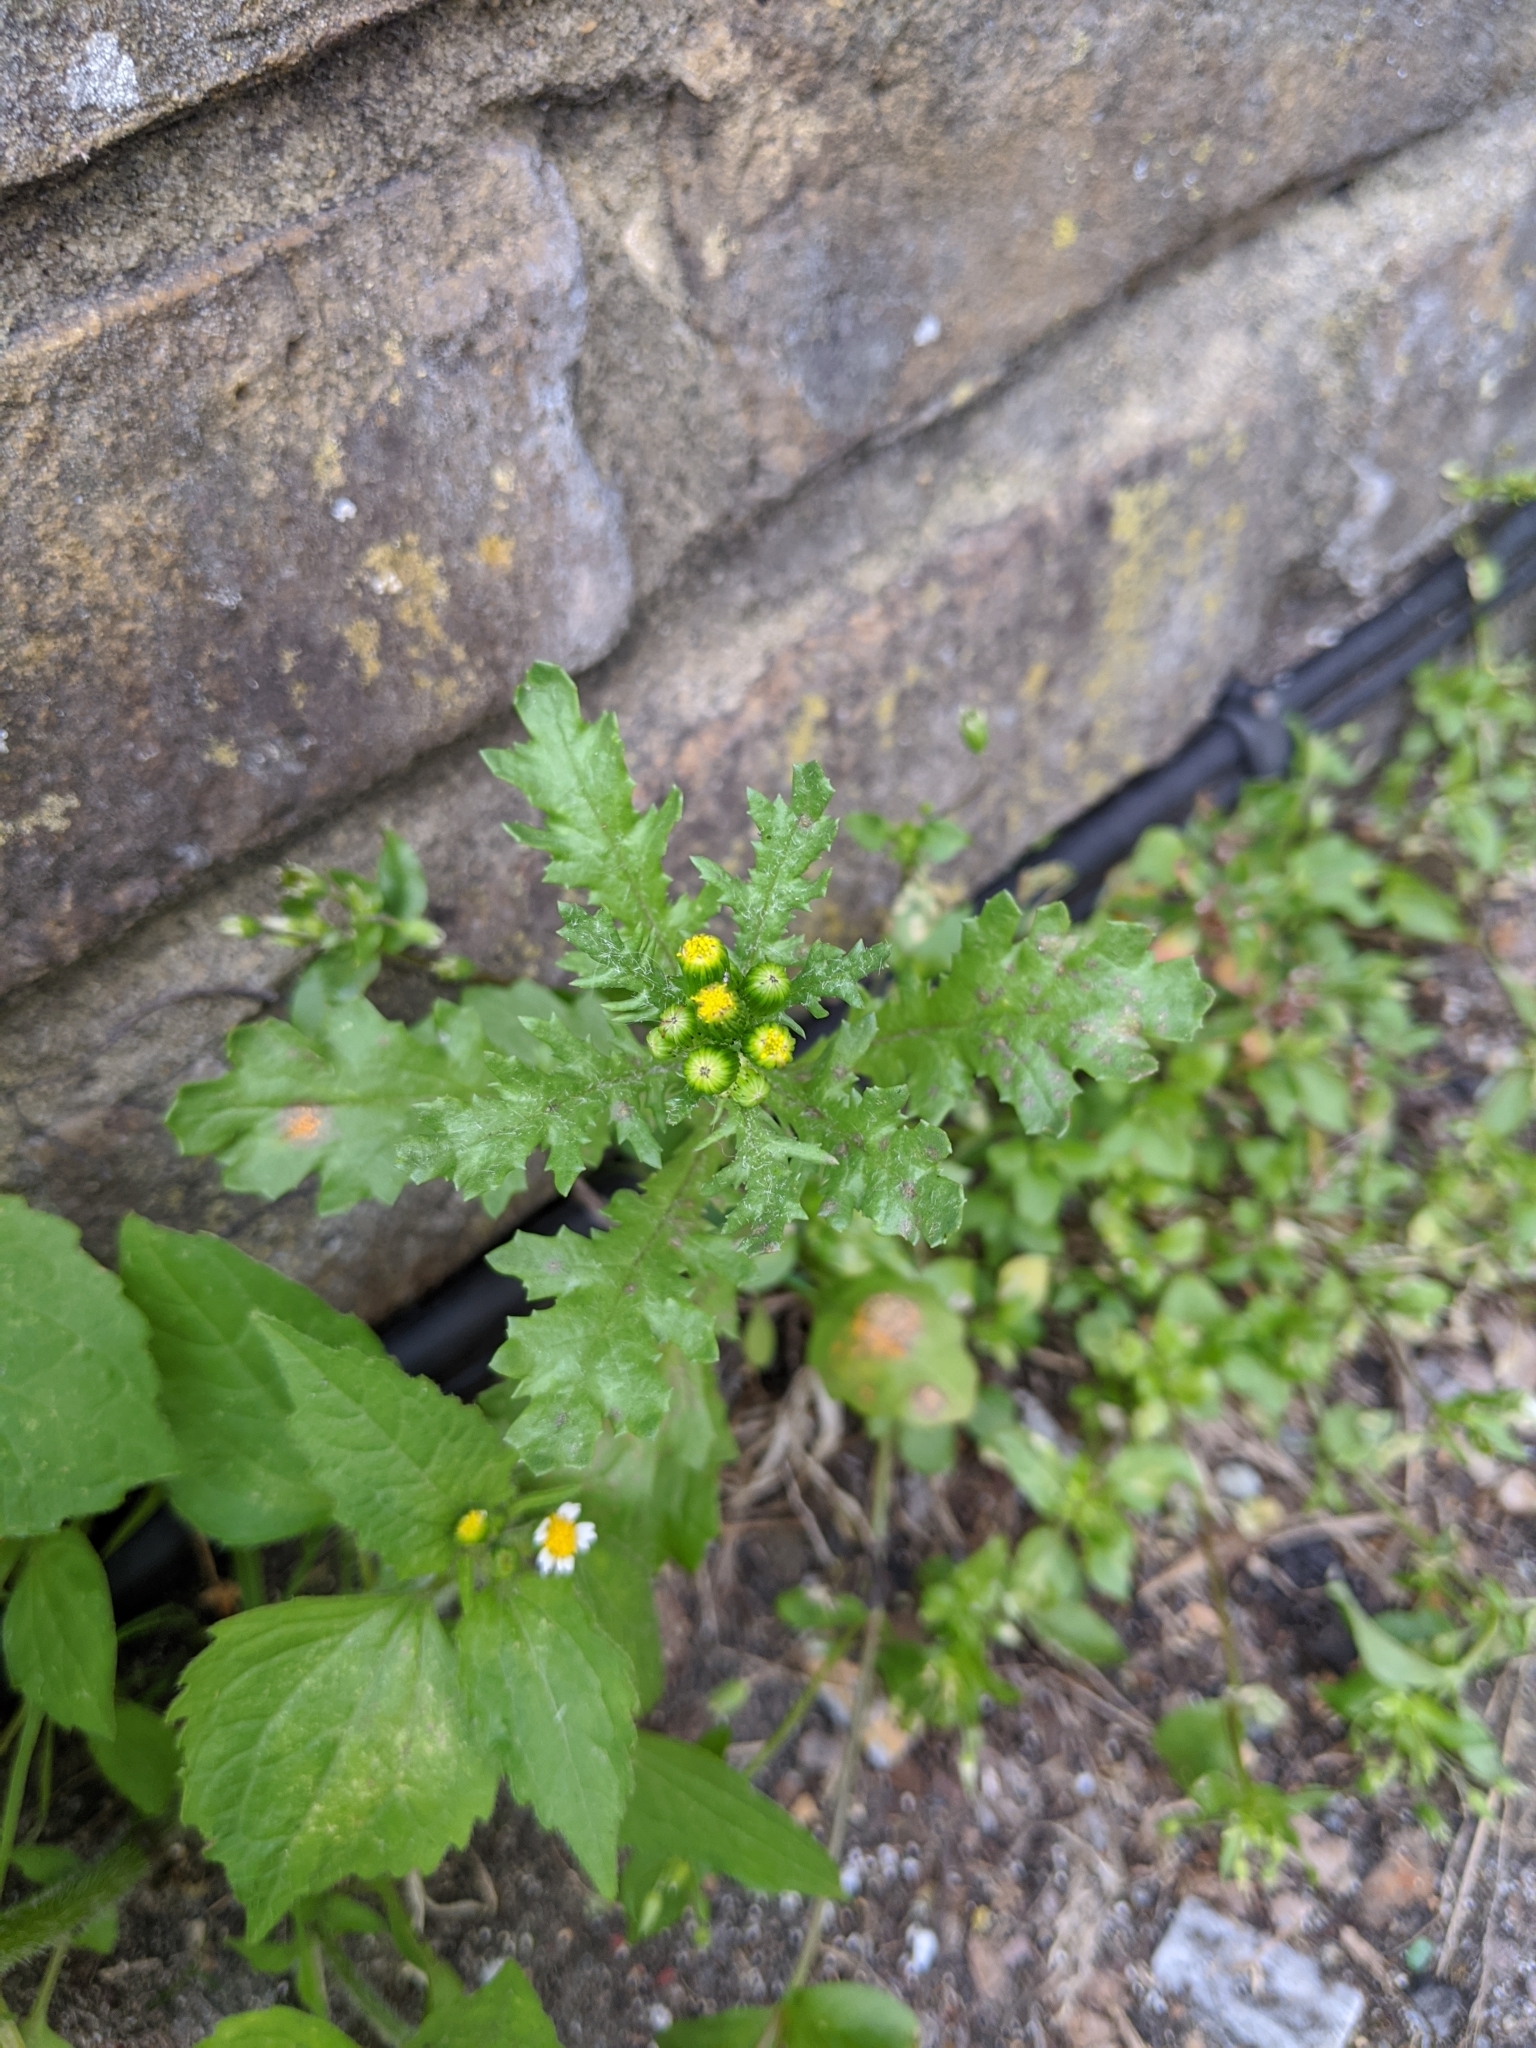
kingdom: Plantae
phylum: Tracheophyta
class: Magnoliopsida
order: Asterales
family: Asteraceae
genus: Senecio
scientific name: Senecio vulgaris
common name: Old-man-in-the-spring
